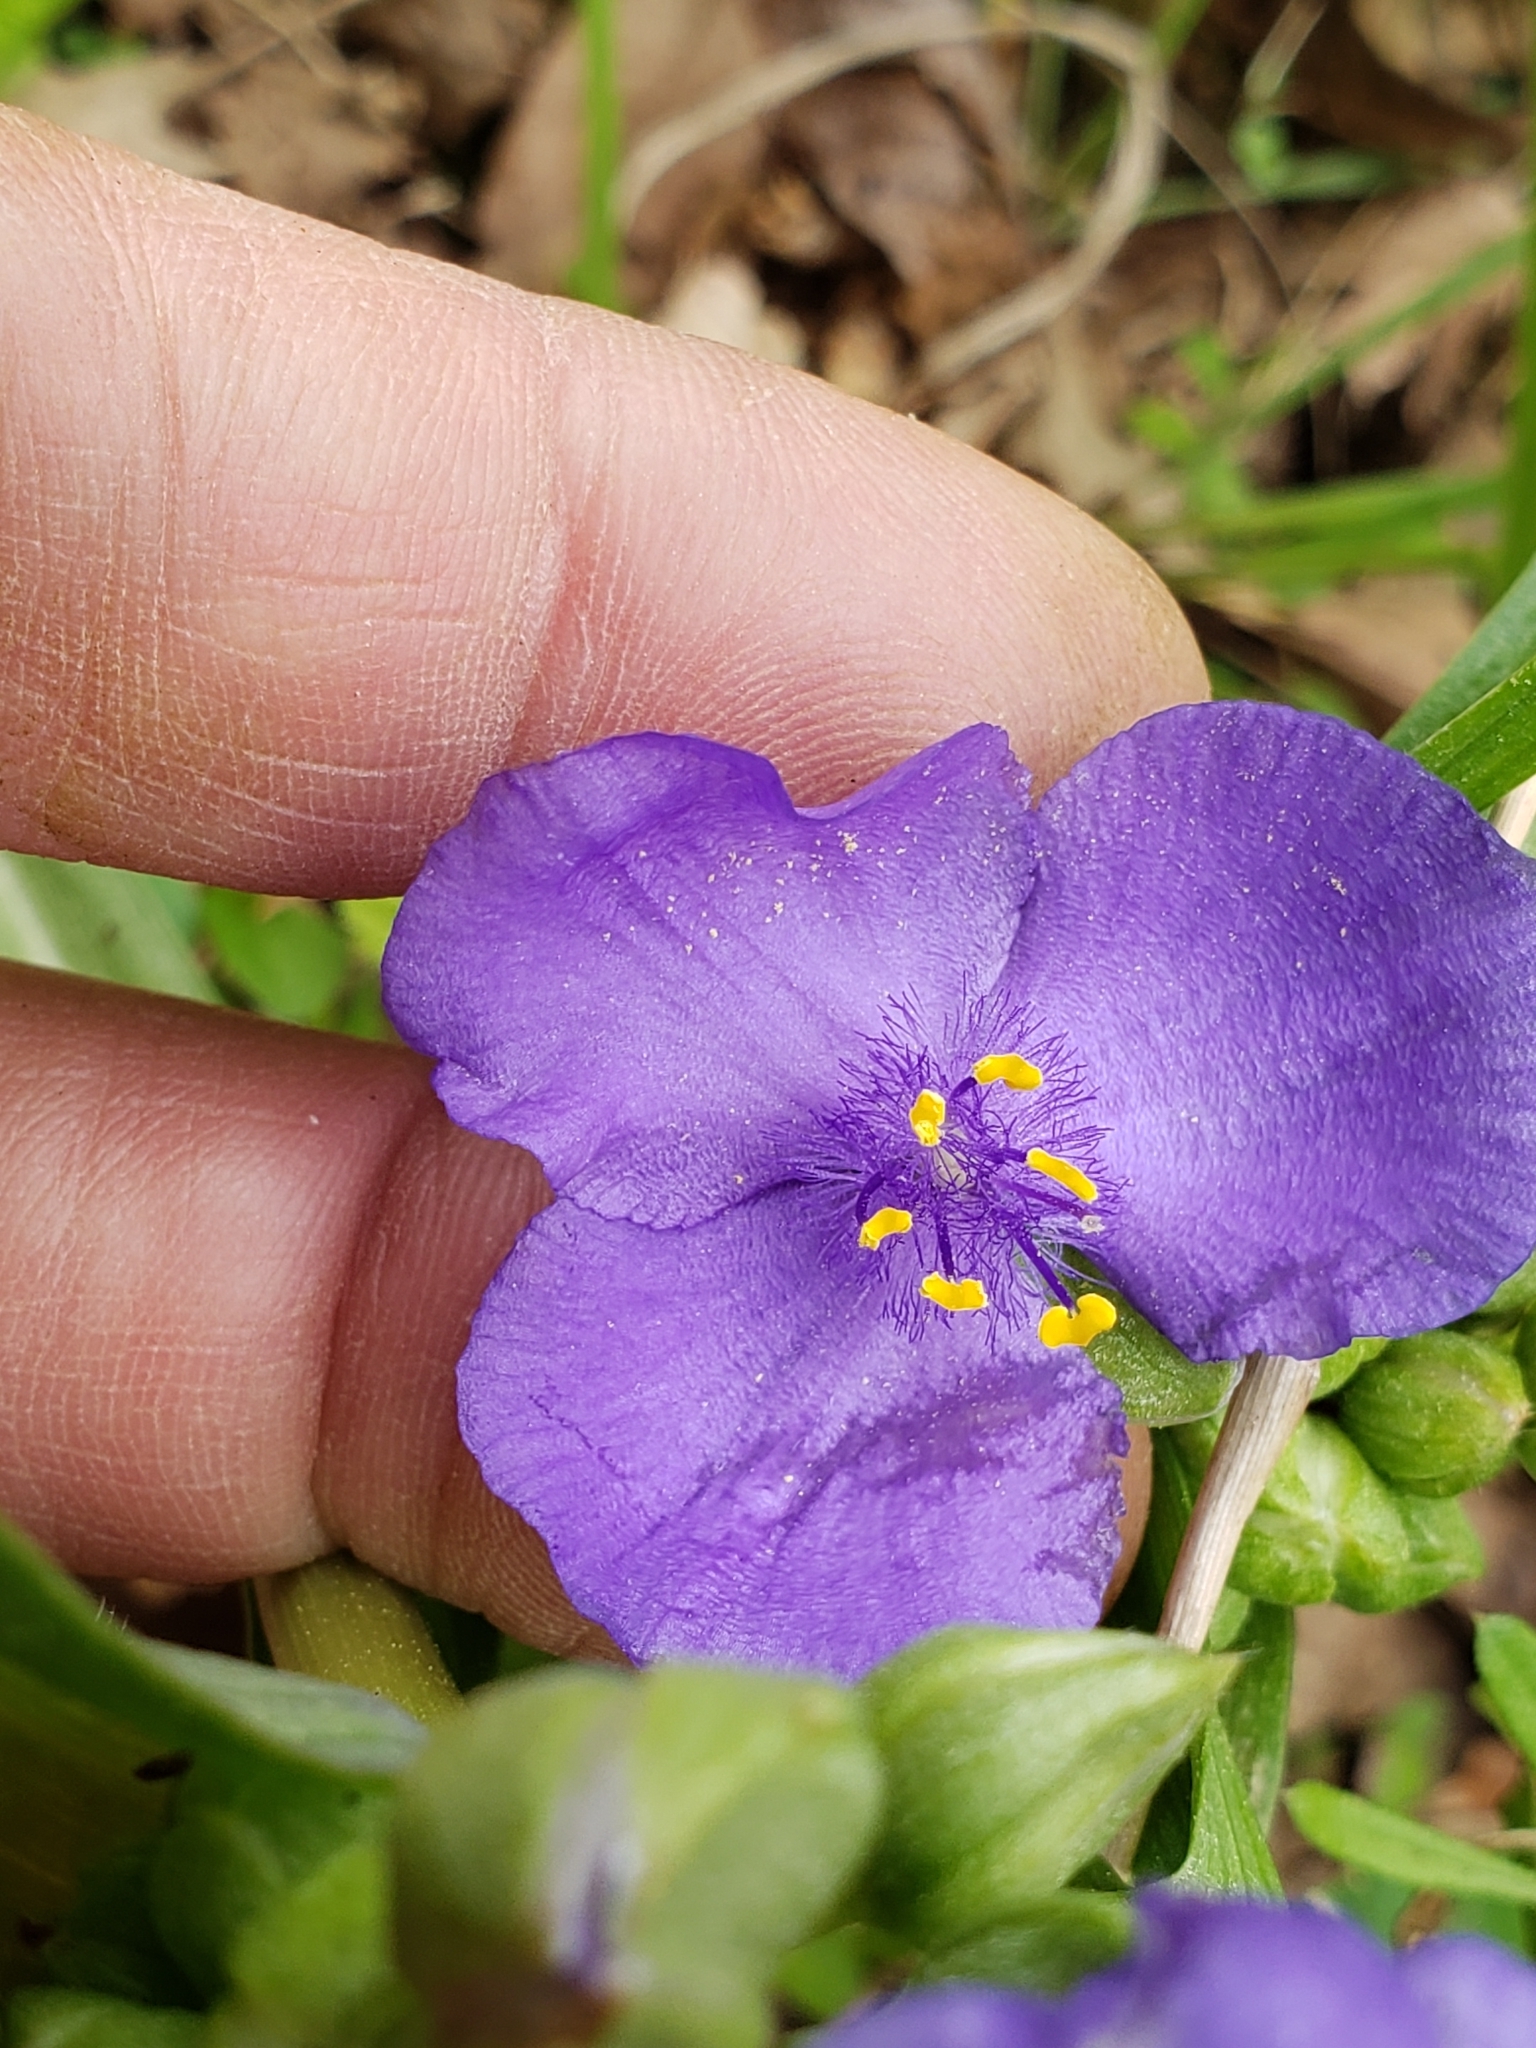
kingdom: Plantae
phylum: Tracheophyta
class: Liliopsida
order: Commelinales
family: Commelinaceae
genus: Tradescantia
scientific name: Tradescantia virginiana
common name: Spiderwort
